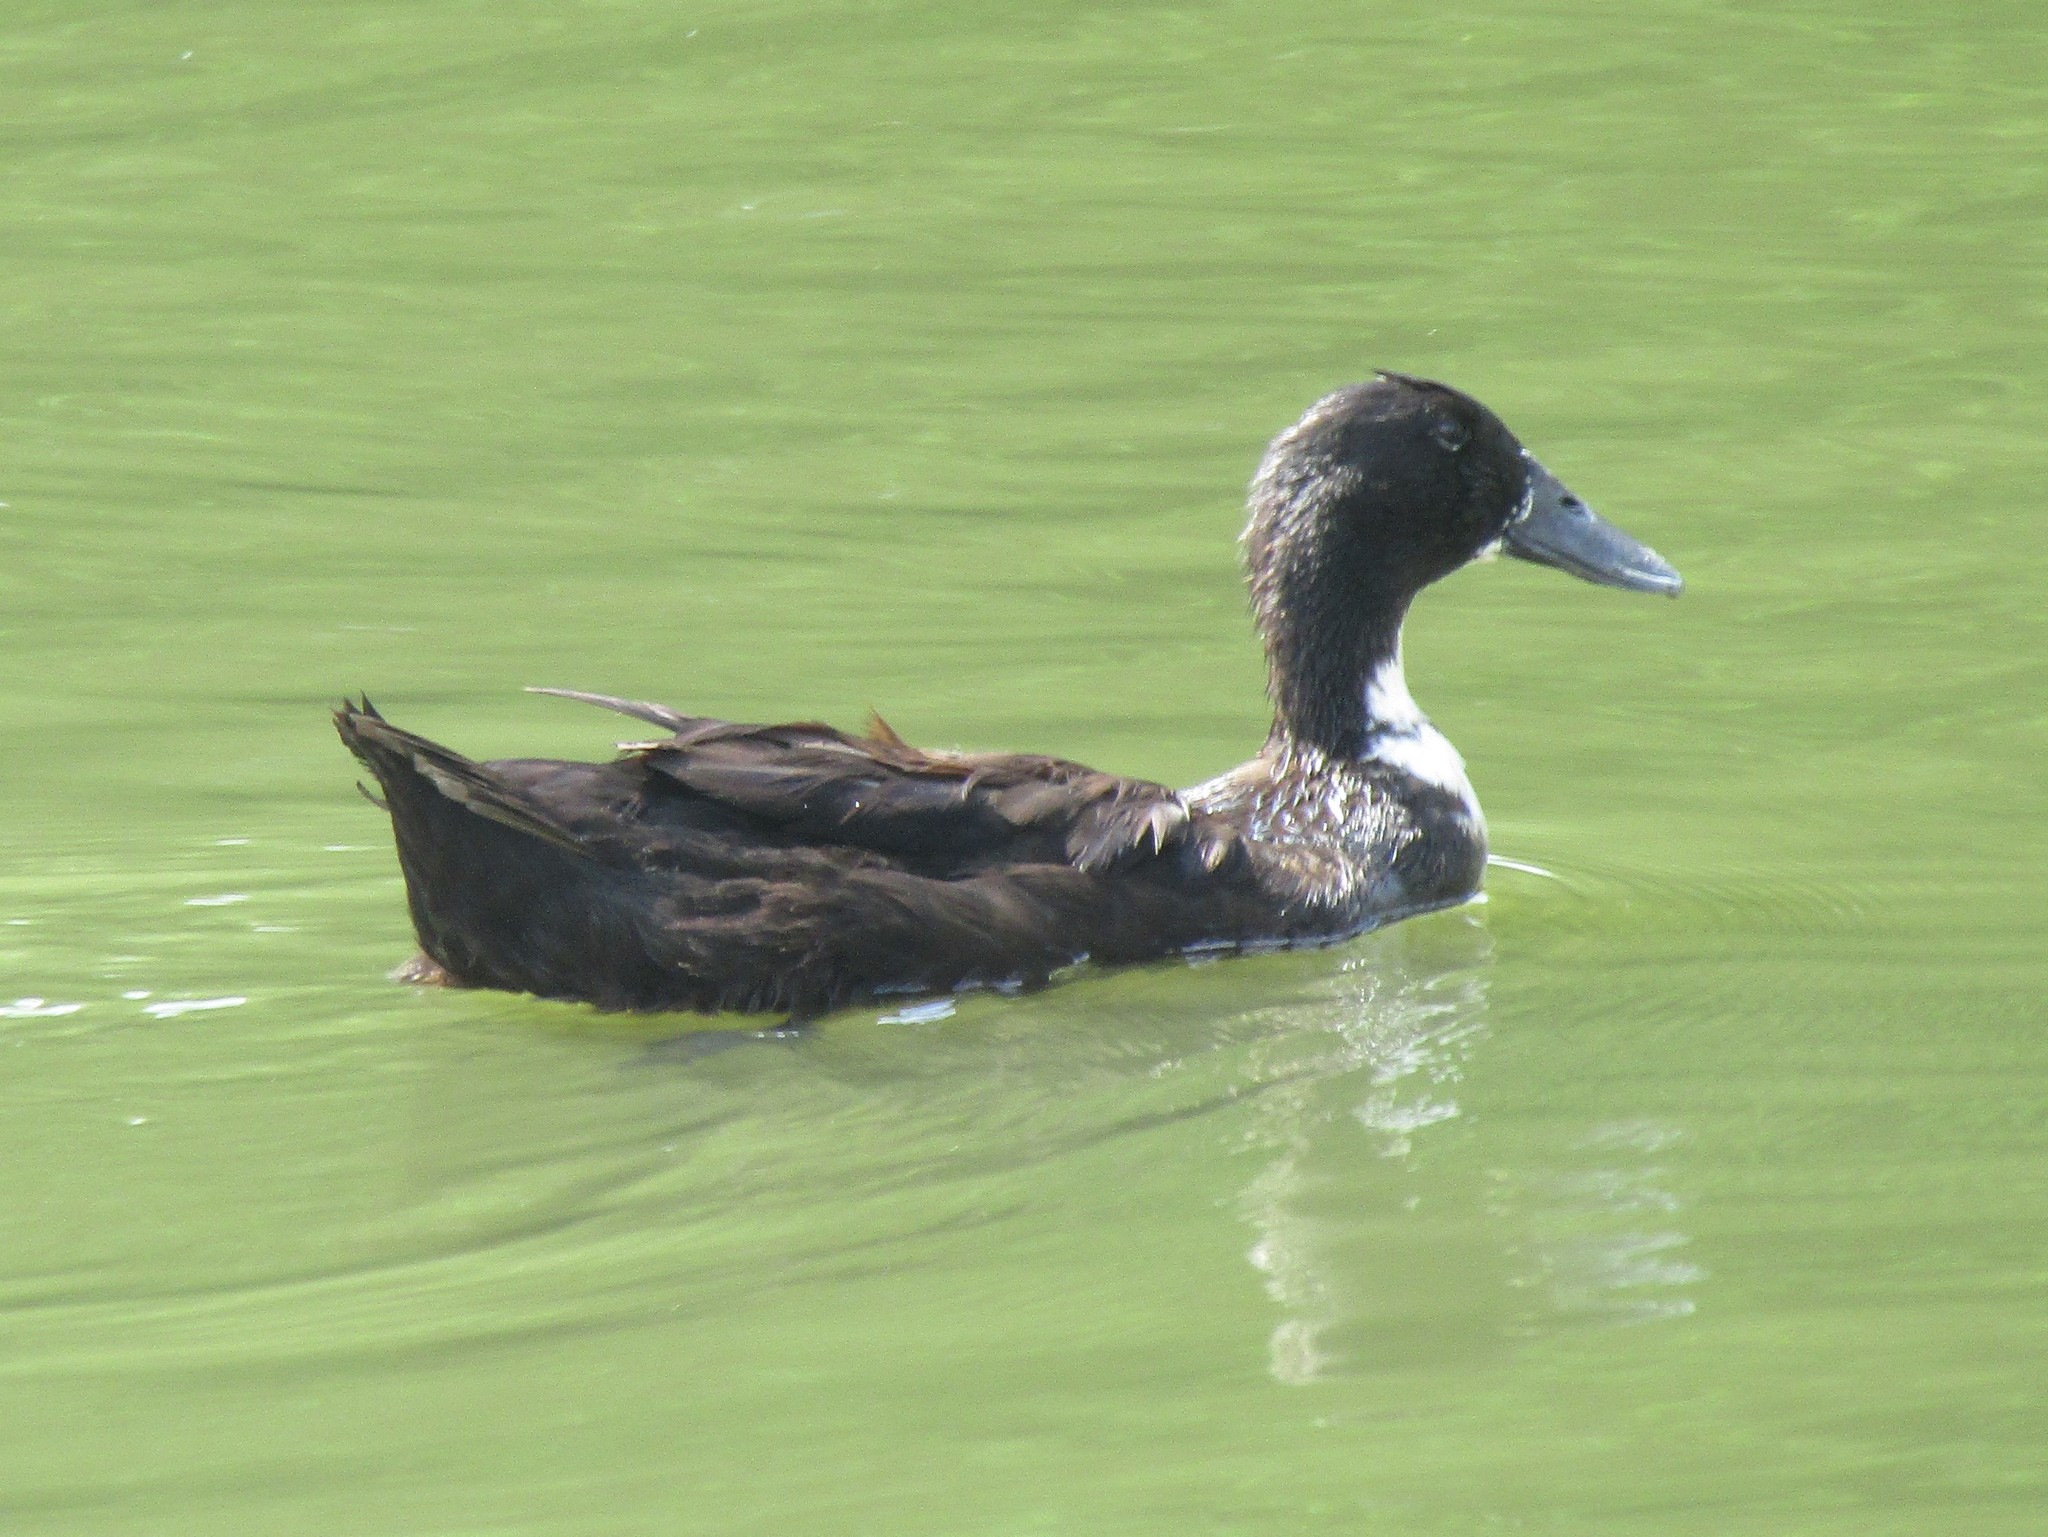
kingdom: Animalia
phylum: Chordata
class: Aves
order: Anseriformes
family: Anatidae
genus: Anas
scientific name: Anas platyrhynchos
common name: Mallard
